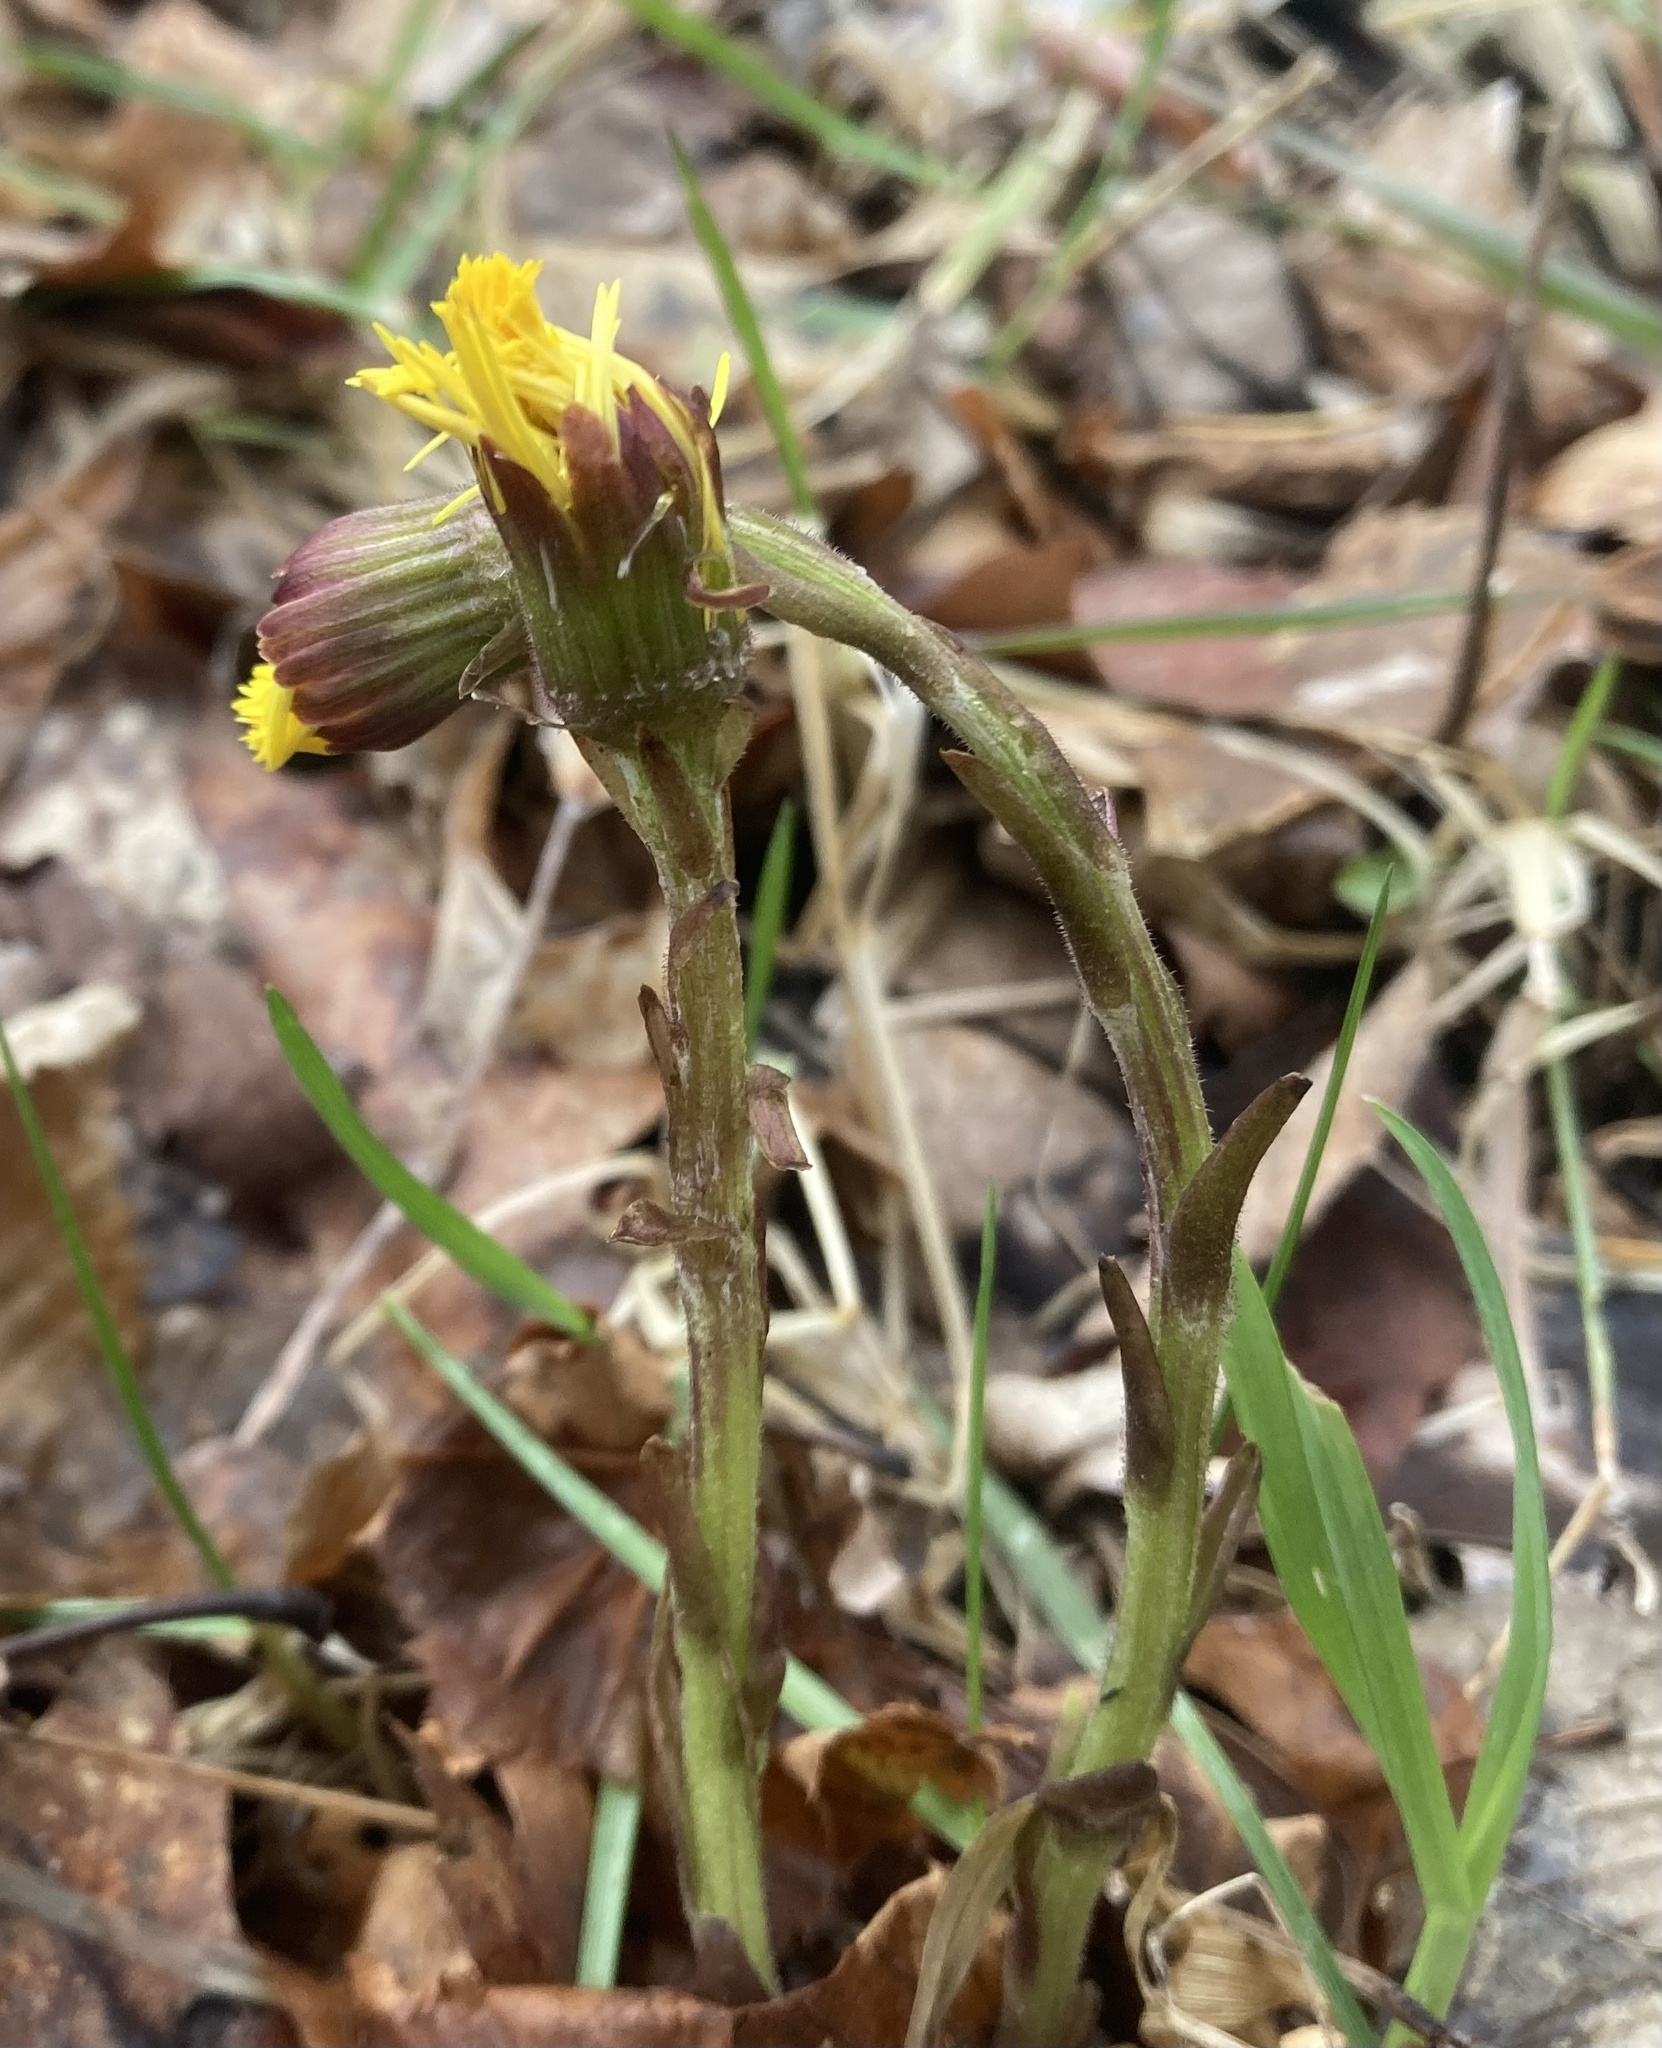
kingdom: Plantae
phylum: Tracheophyta
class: Magnoliopsida
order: Asterales
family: Asteraceae
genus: Tussilago
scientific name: Tussilago farfara
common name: Coltsfoot
